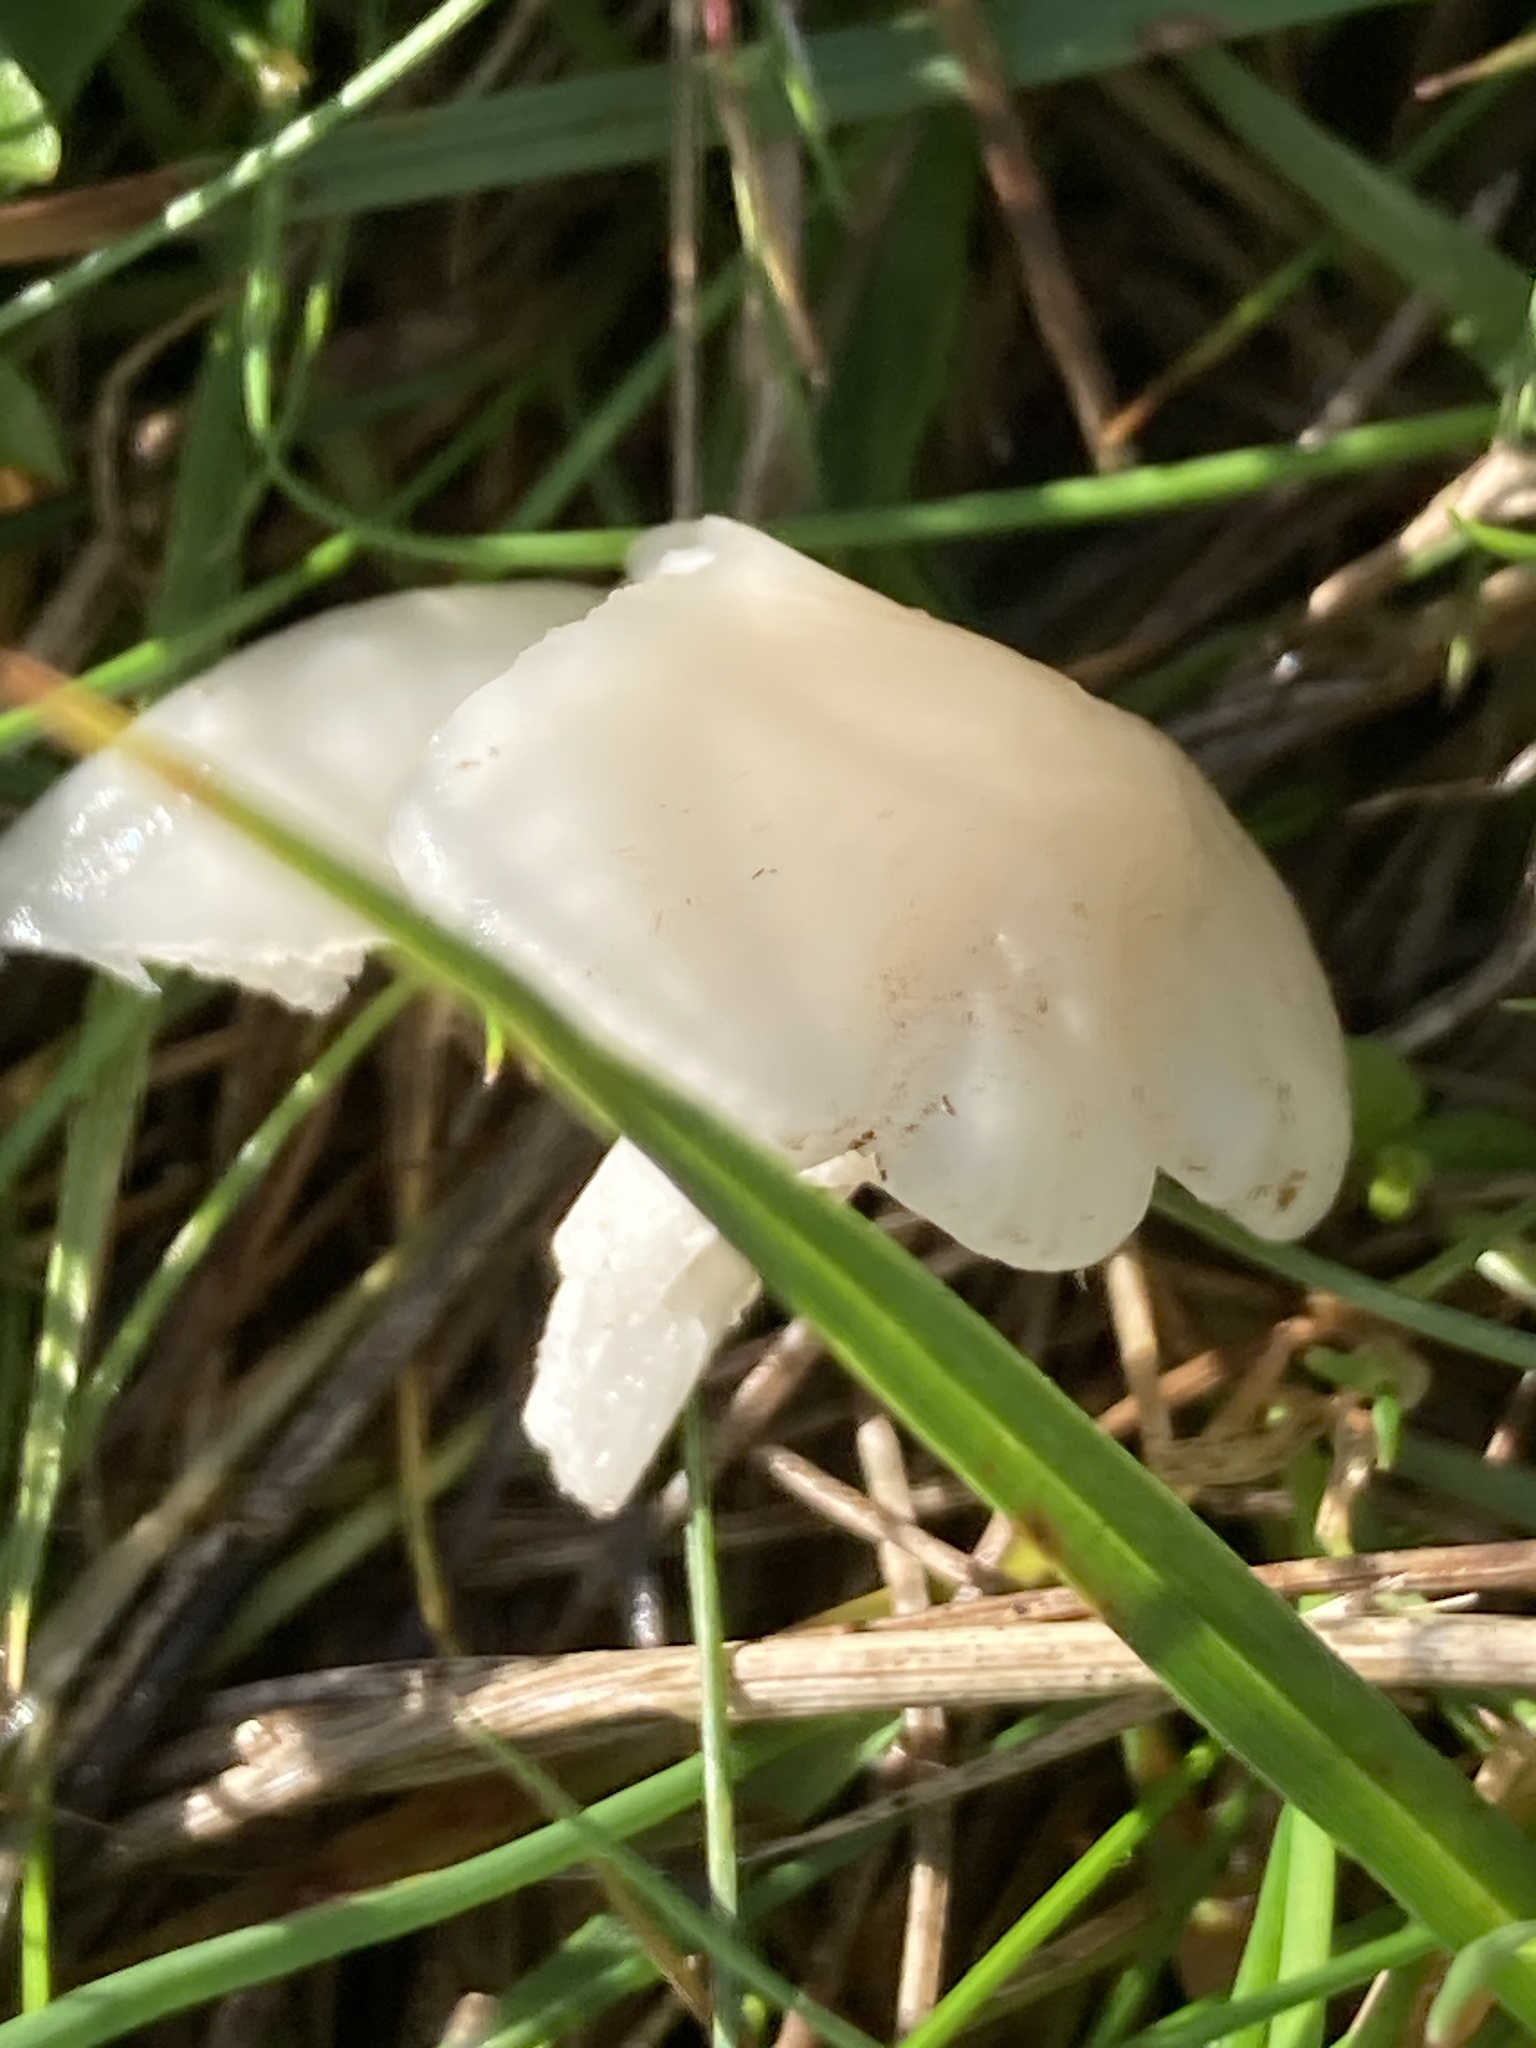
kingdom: Fungi
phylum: Basidiomycota
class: Agaricomycetes
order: Agaricales
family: Hygrophoraceae
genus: Cuphophyllus
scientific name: Cuphophyllus virgineus
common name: Snowy waxcap
